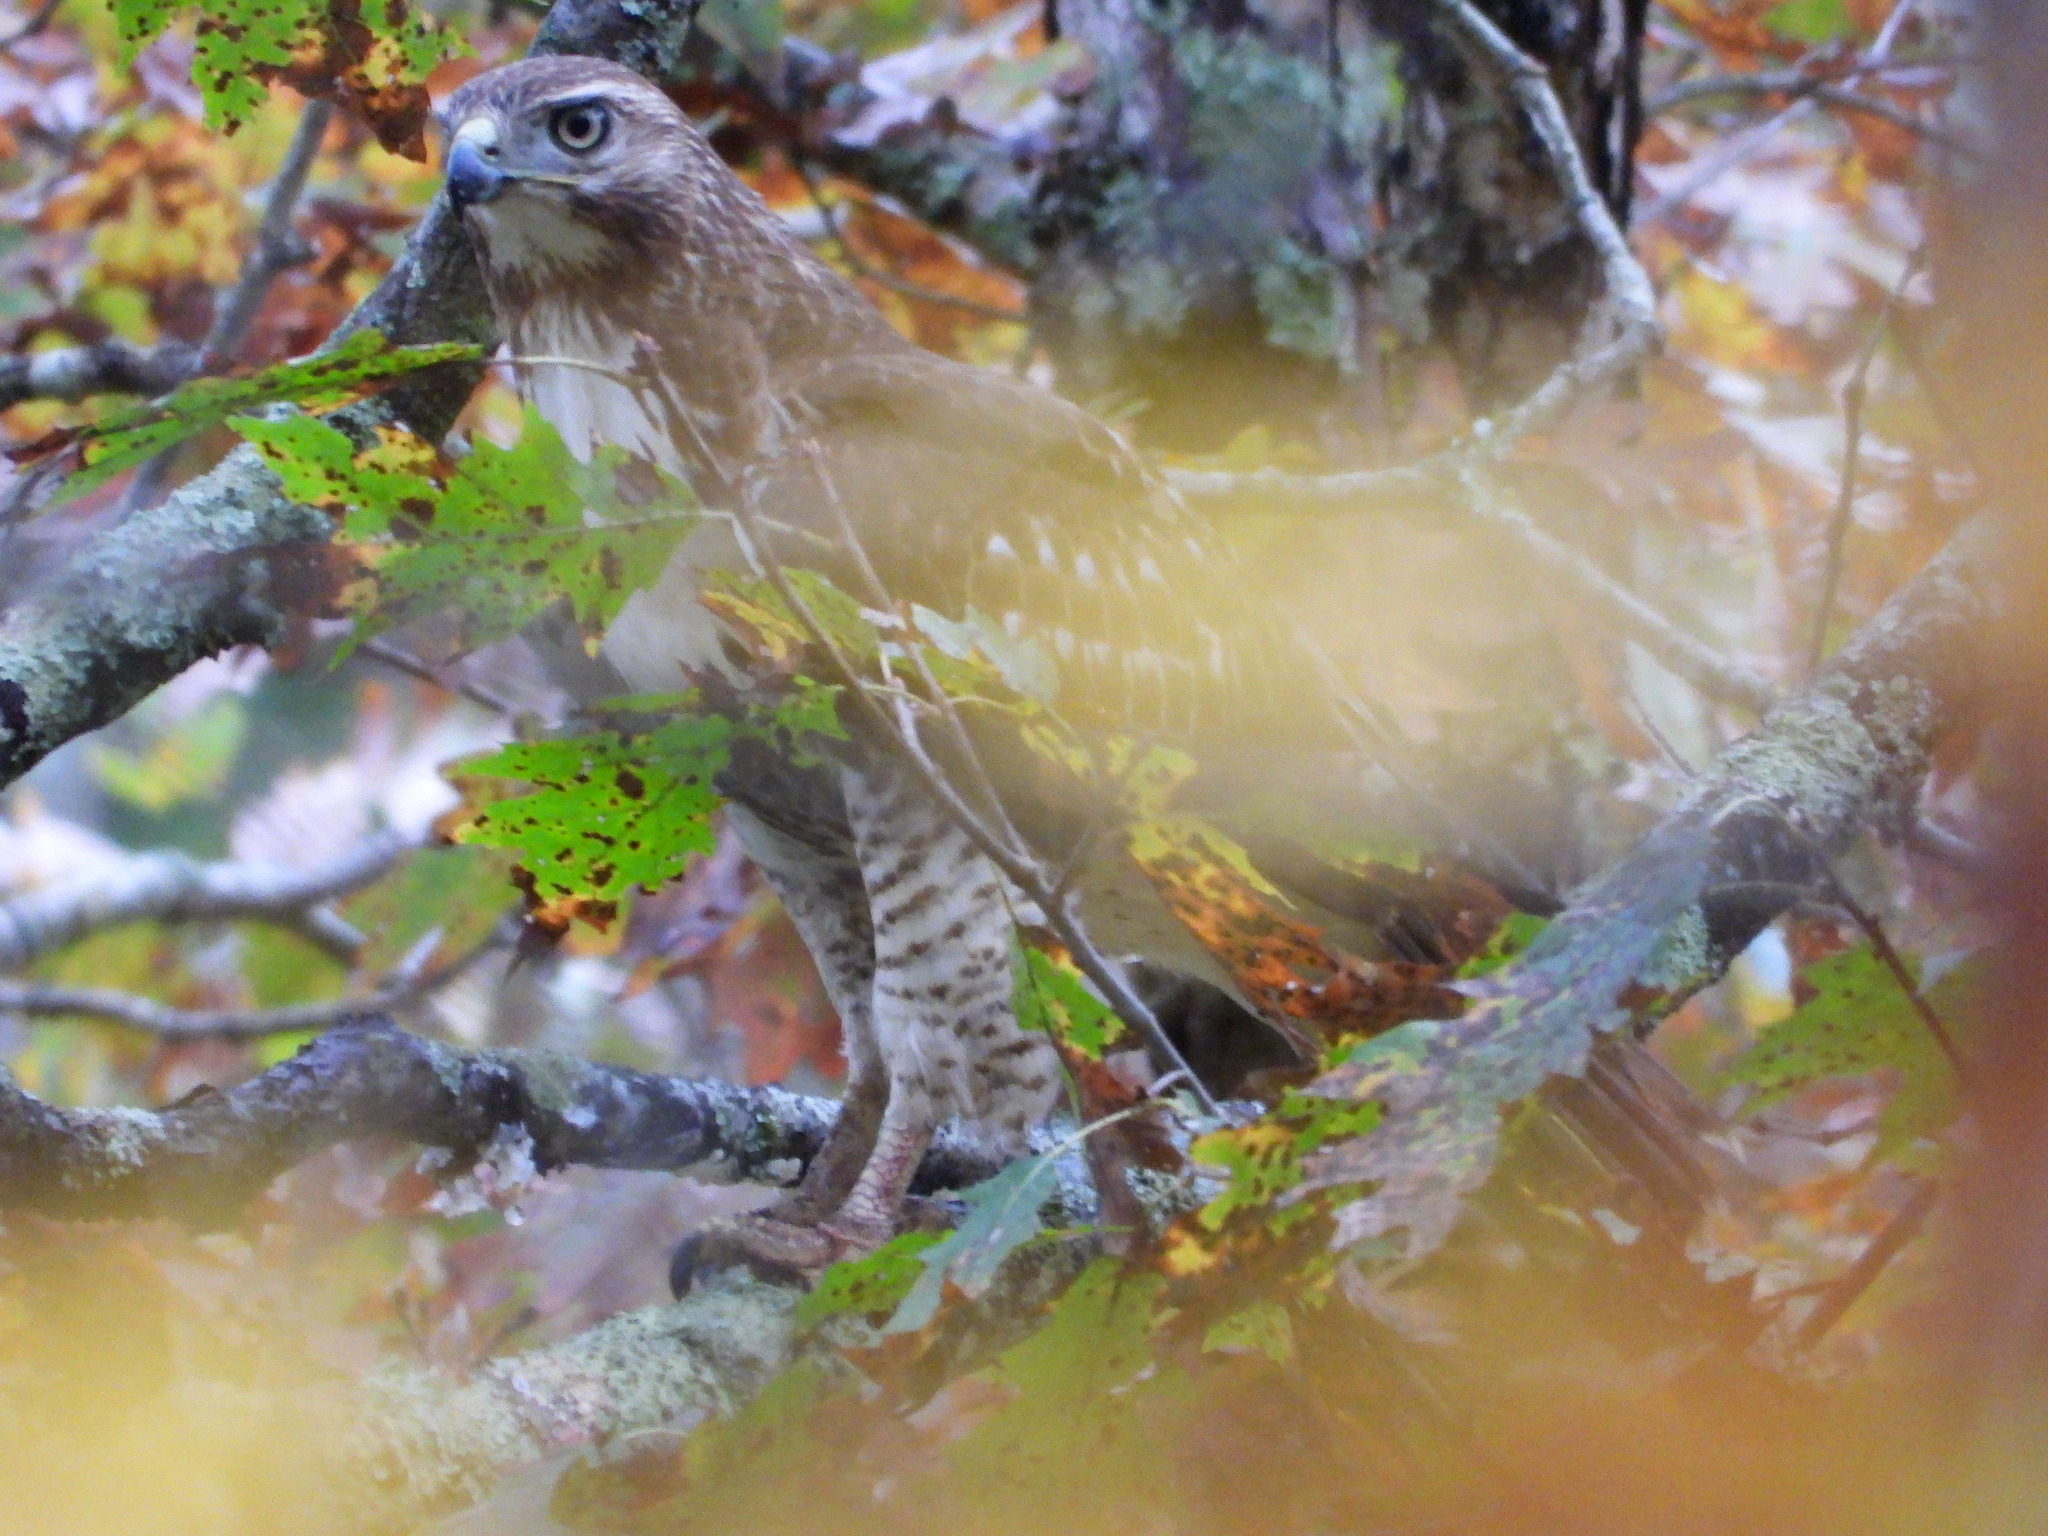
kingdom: Animalia
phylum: Chordata
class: Aves
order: Accipitriformes
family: Accipitridae
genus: Buteo
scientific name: Buteo jamaicensis
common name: Red-tailed hawk
